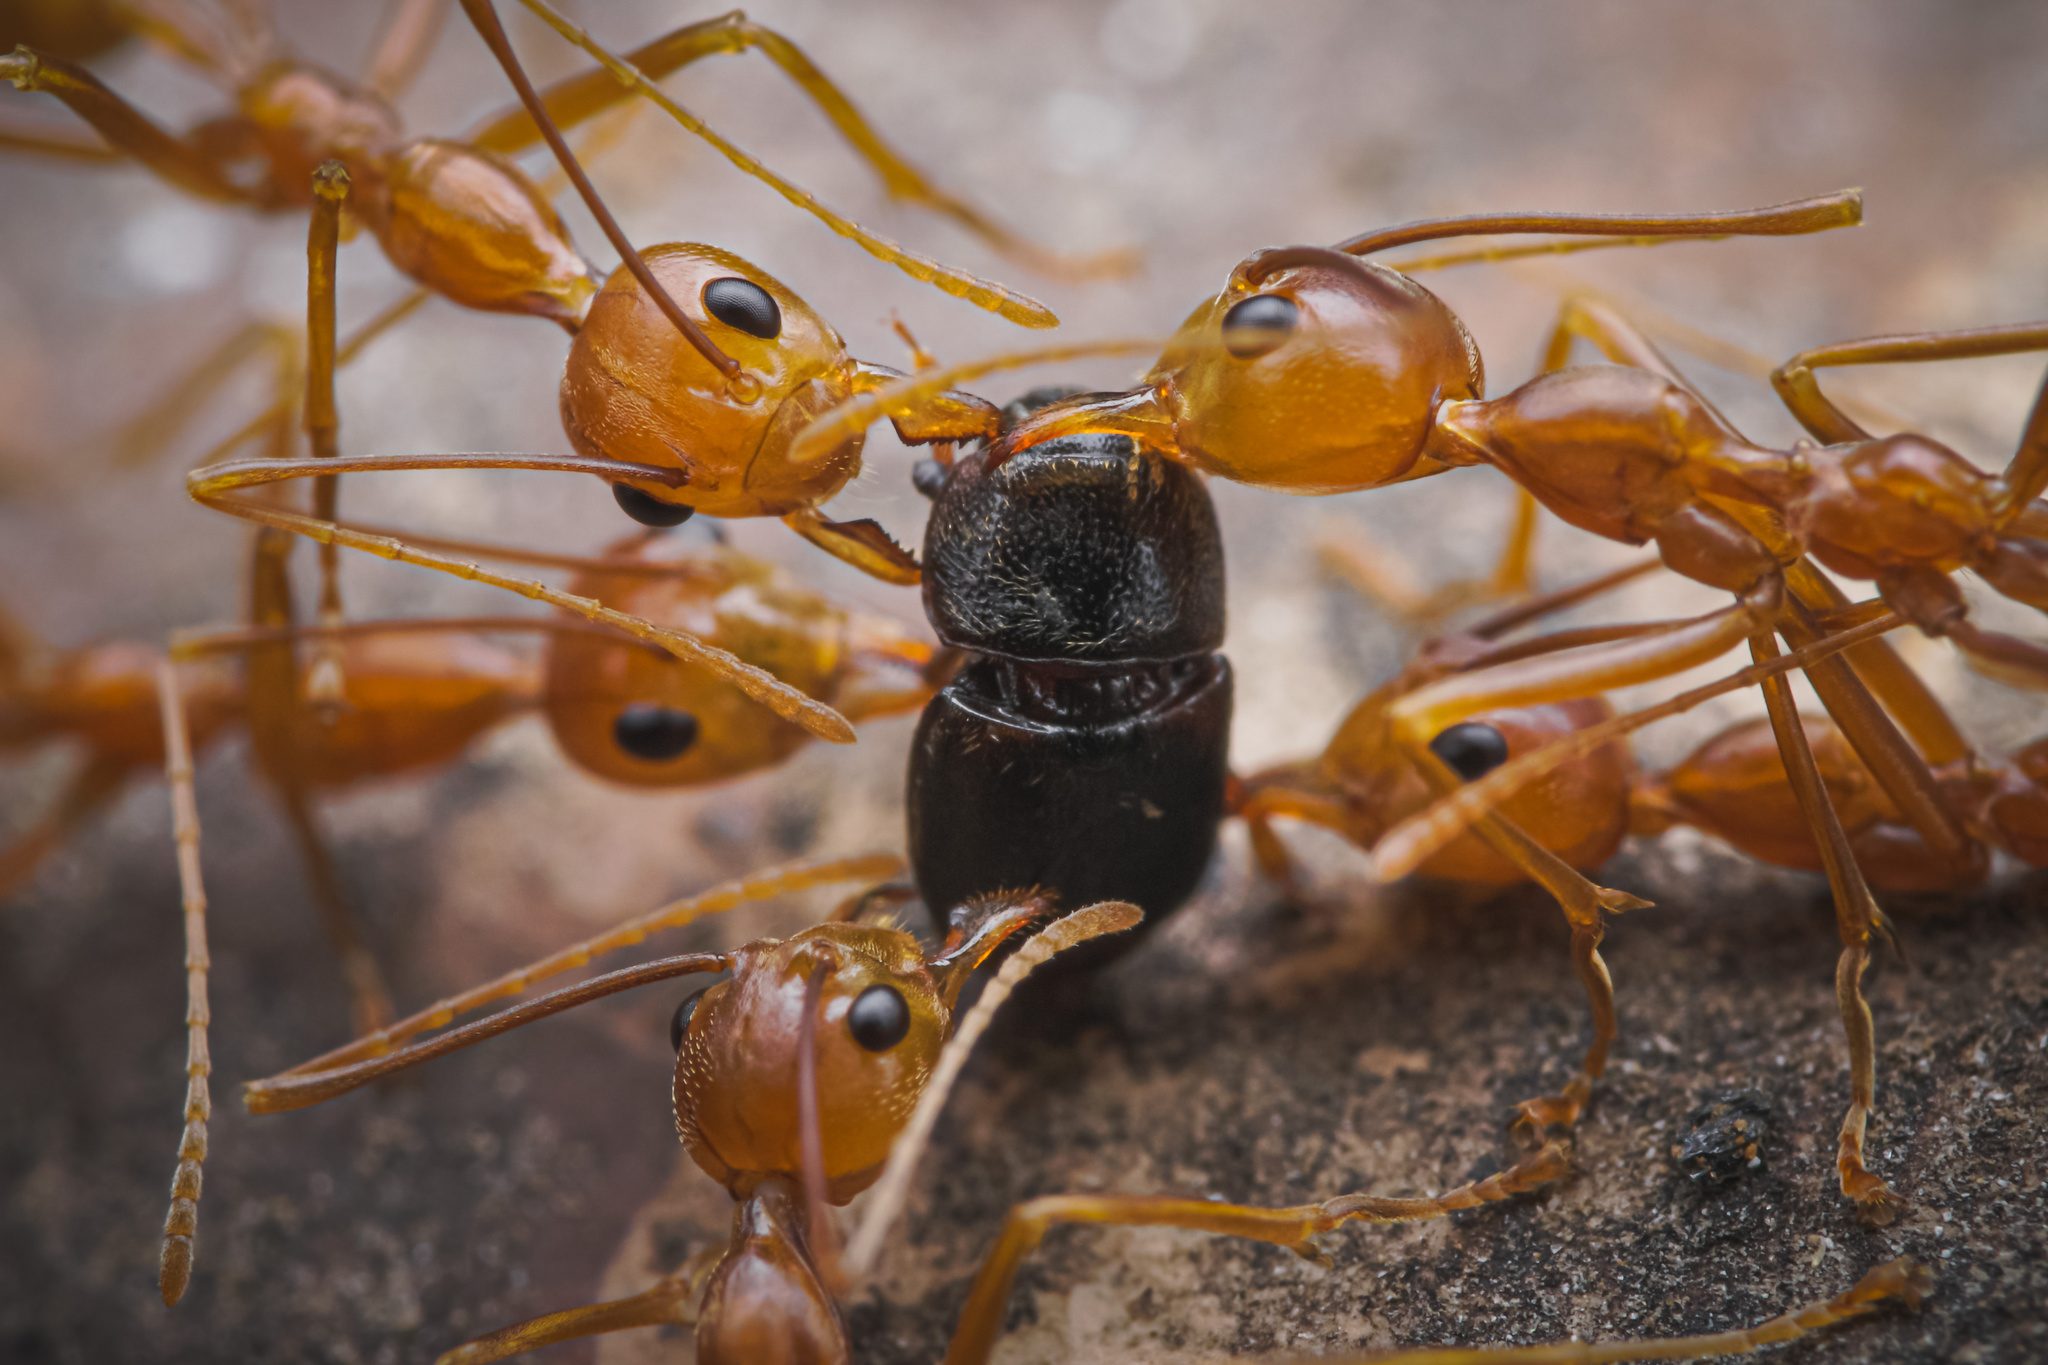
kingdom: Animalia
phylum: Arthropoda
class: Insecta
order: Hymenoptera
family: Formicidae
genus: Oecophylla
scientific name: Oecophylla smaragdina
